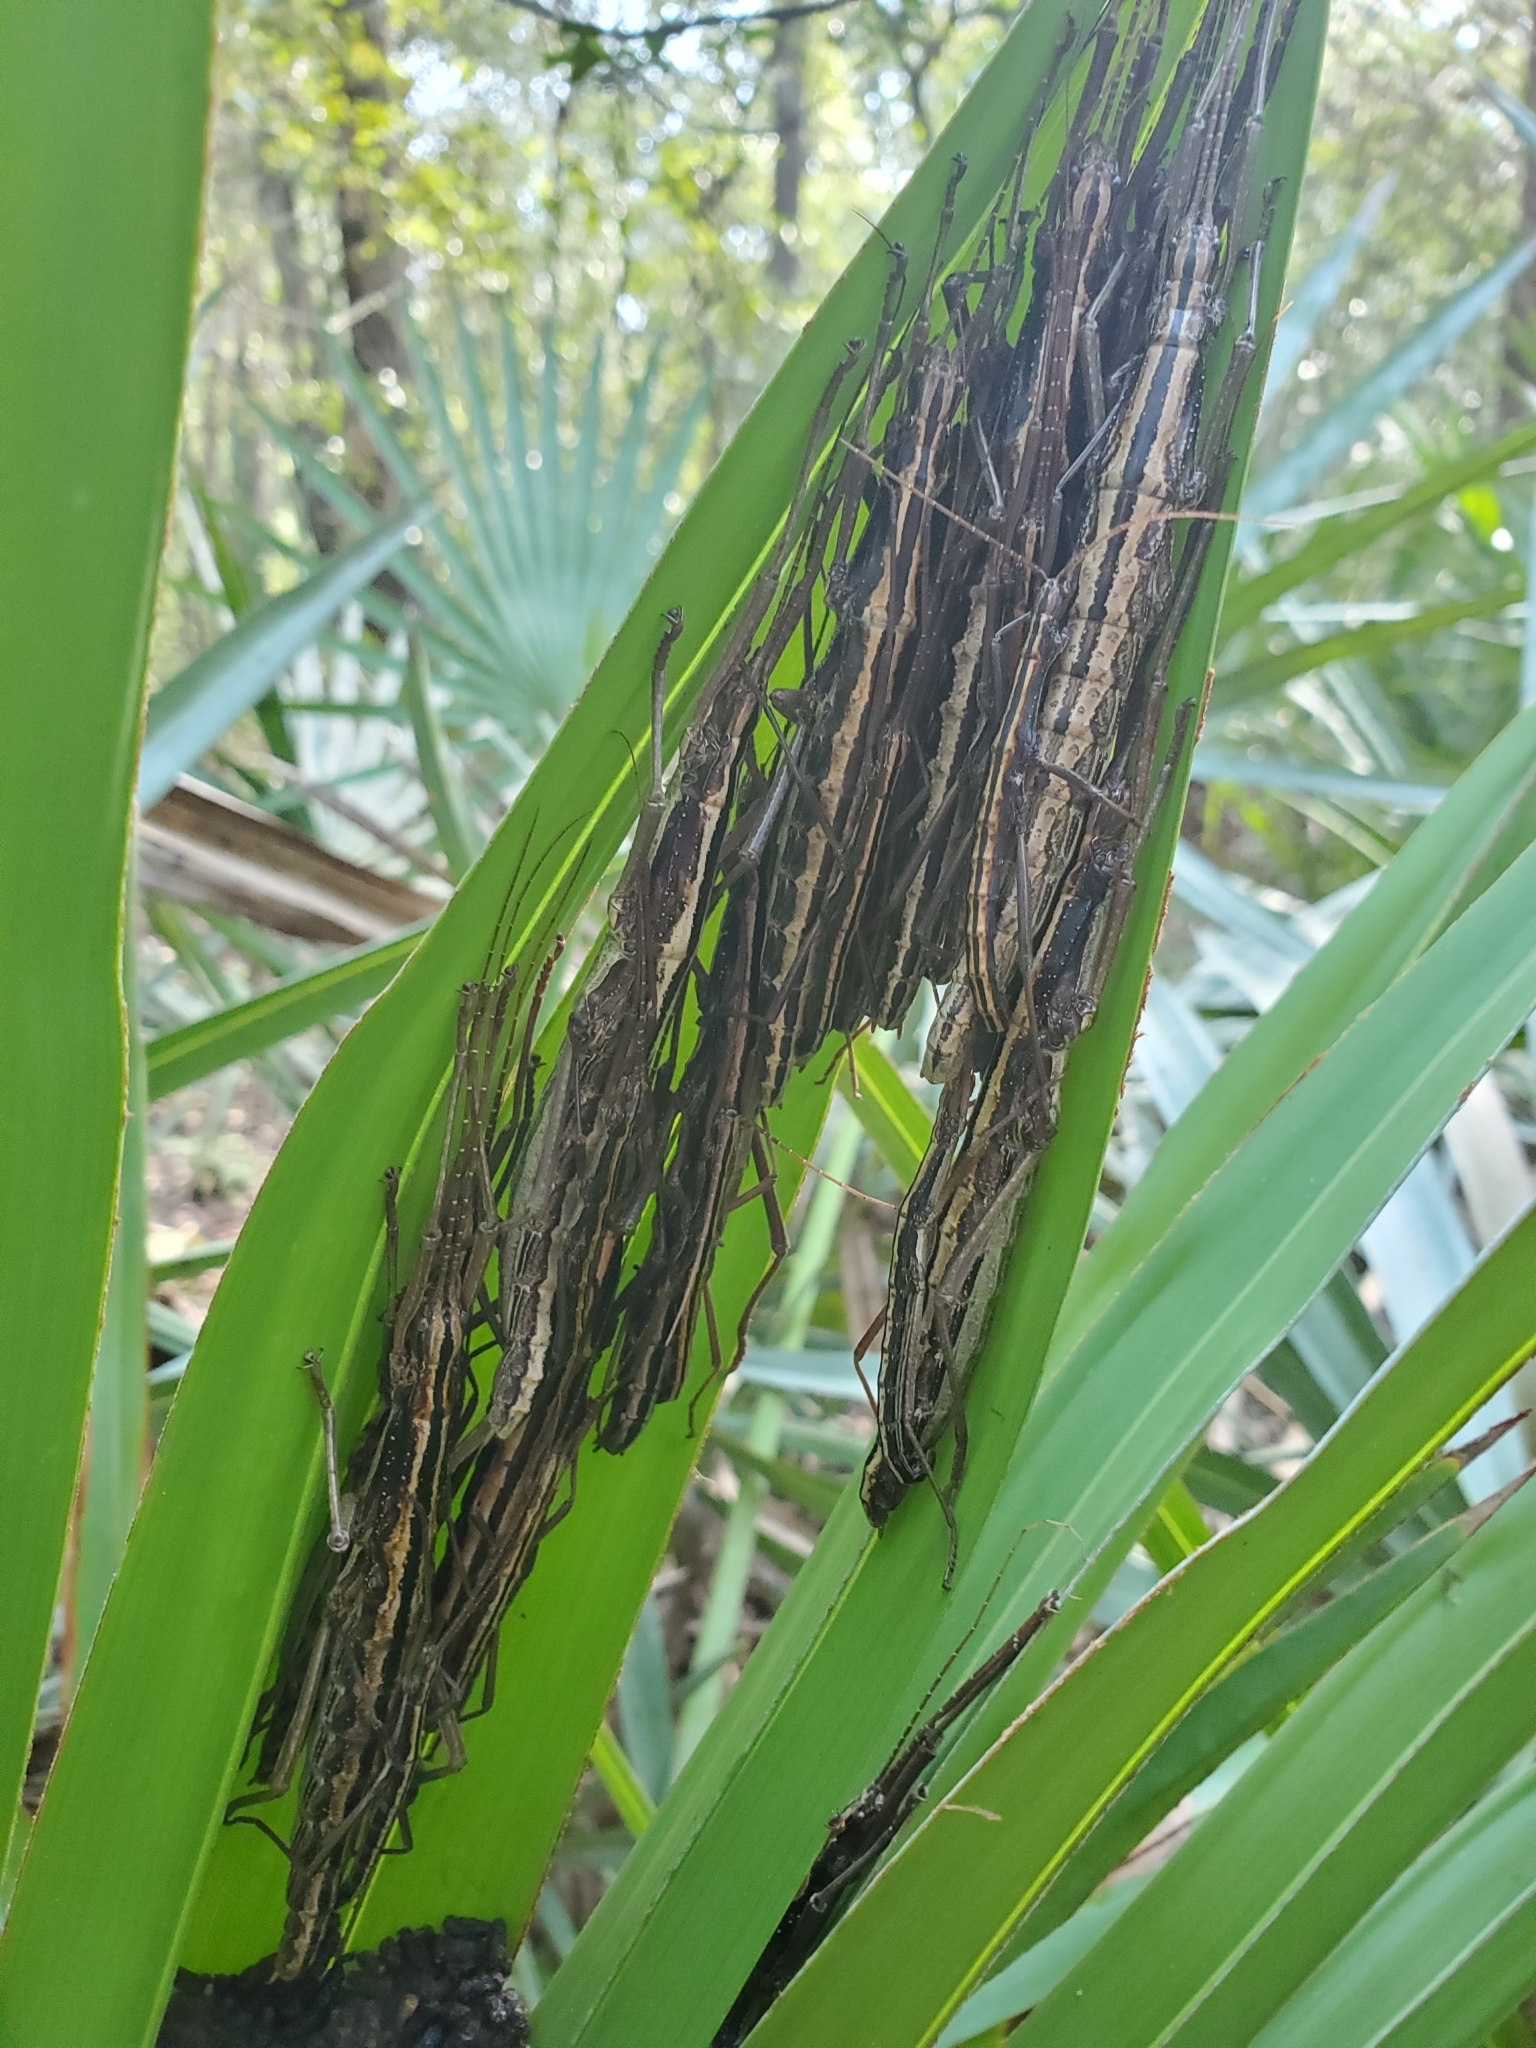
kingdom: Animalia
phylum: Arthropoda
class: Insecta
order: Phasmida
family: Pseudophasmatidae
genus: Anisomorpha
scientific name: Anisomorpha buprestoides
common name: Florida stick insect
